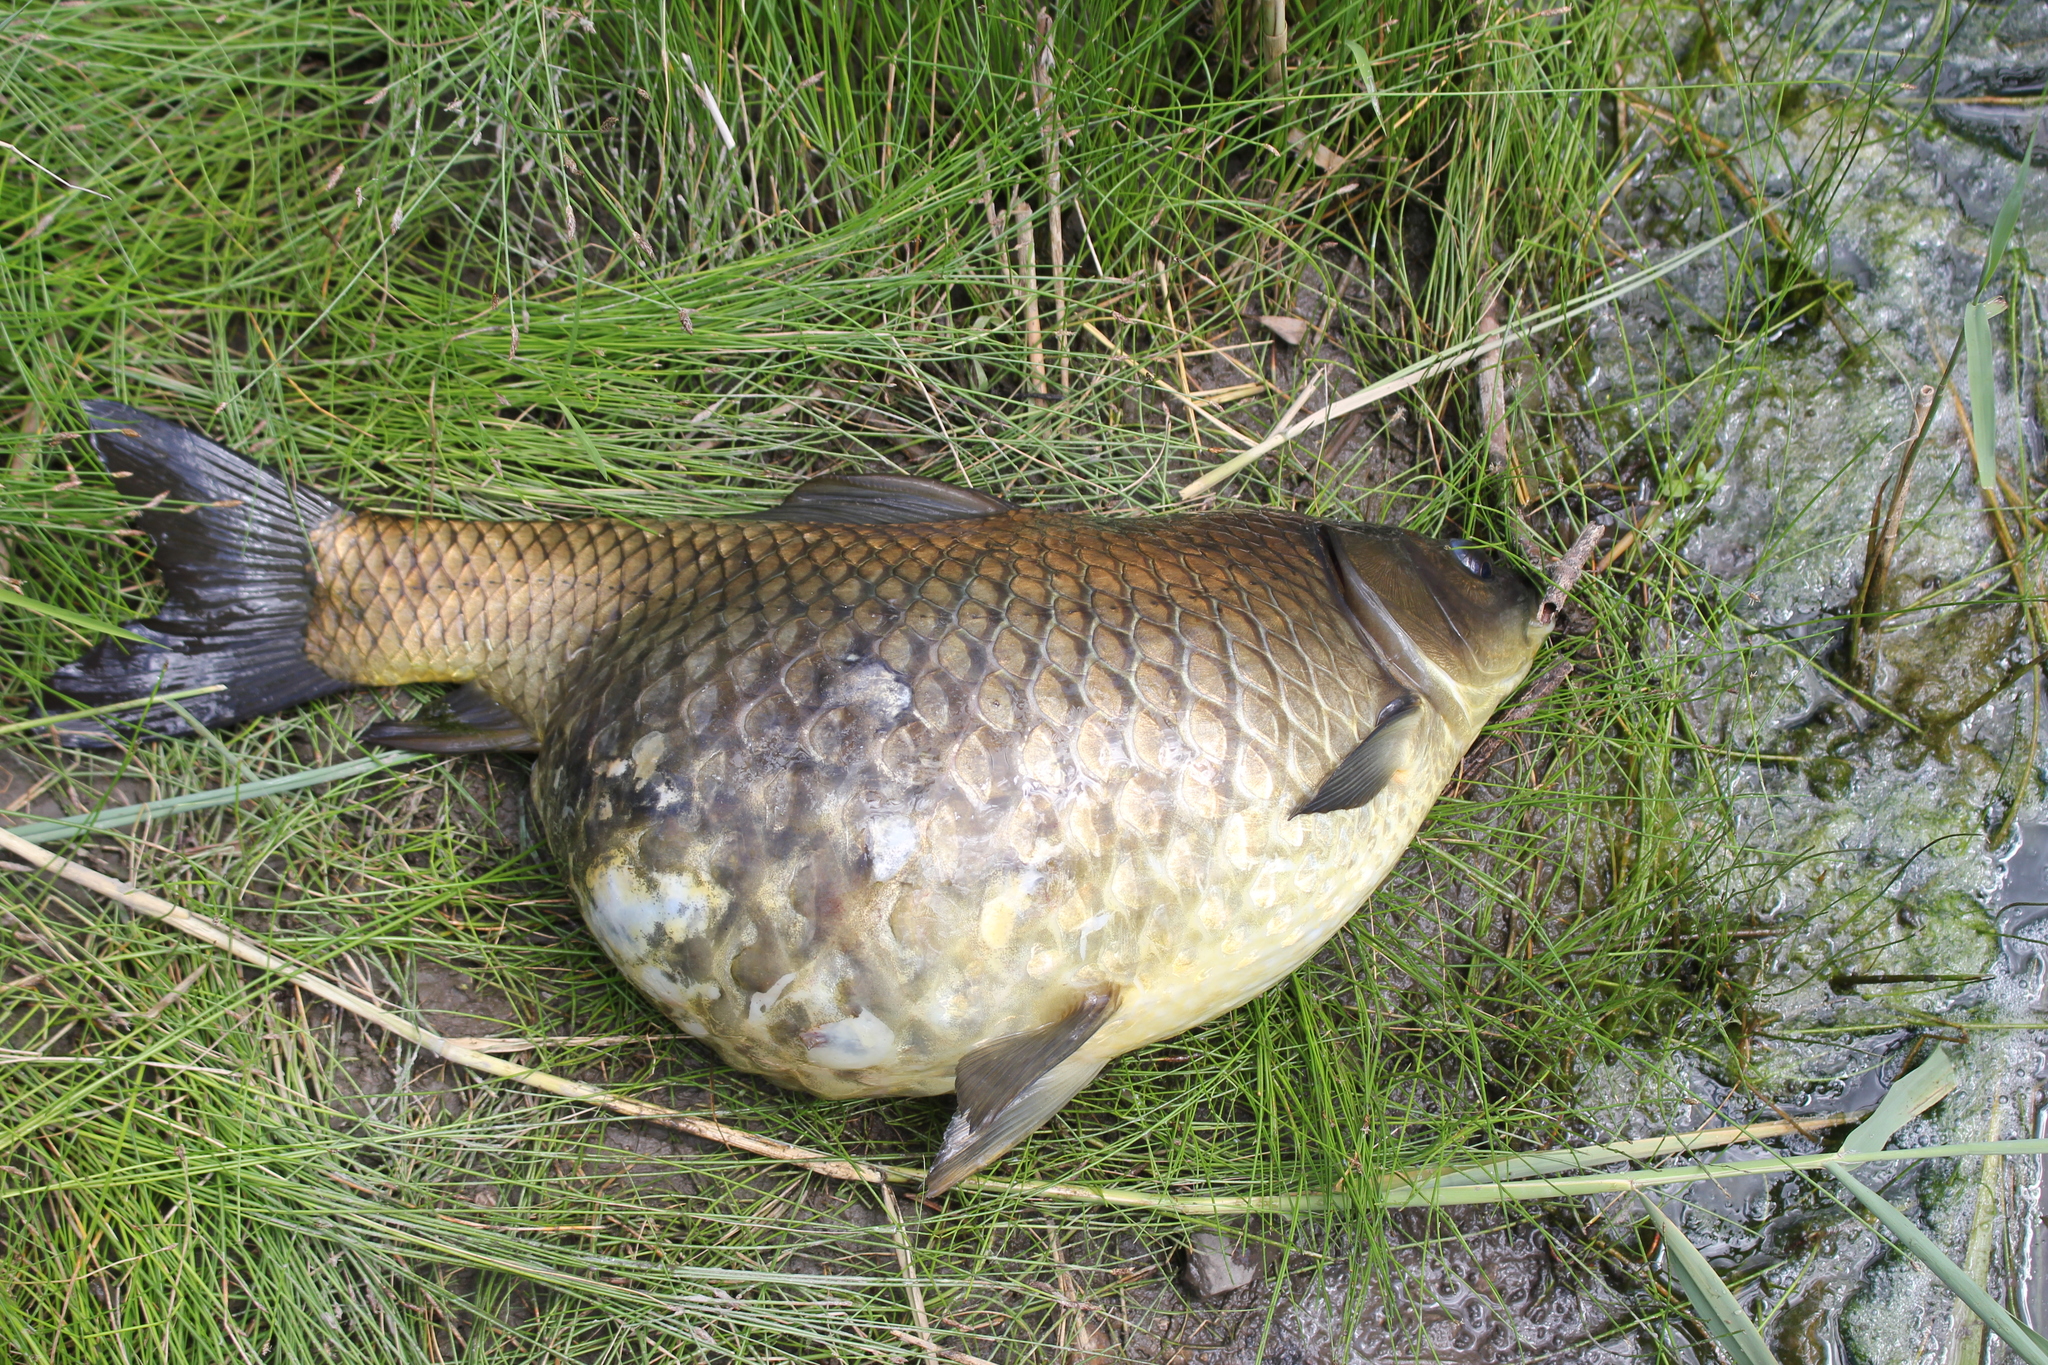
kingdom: Animalia
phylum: Chordata
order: Cypriniformes
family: Cyprinidae
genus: Cyprinus
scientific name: Cyprinus carpio
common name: Common carp
